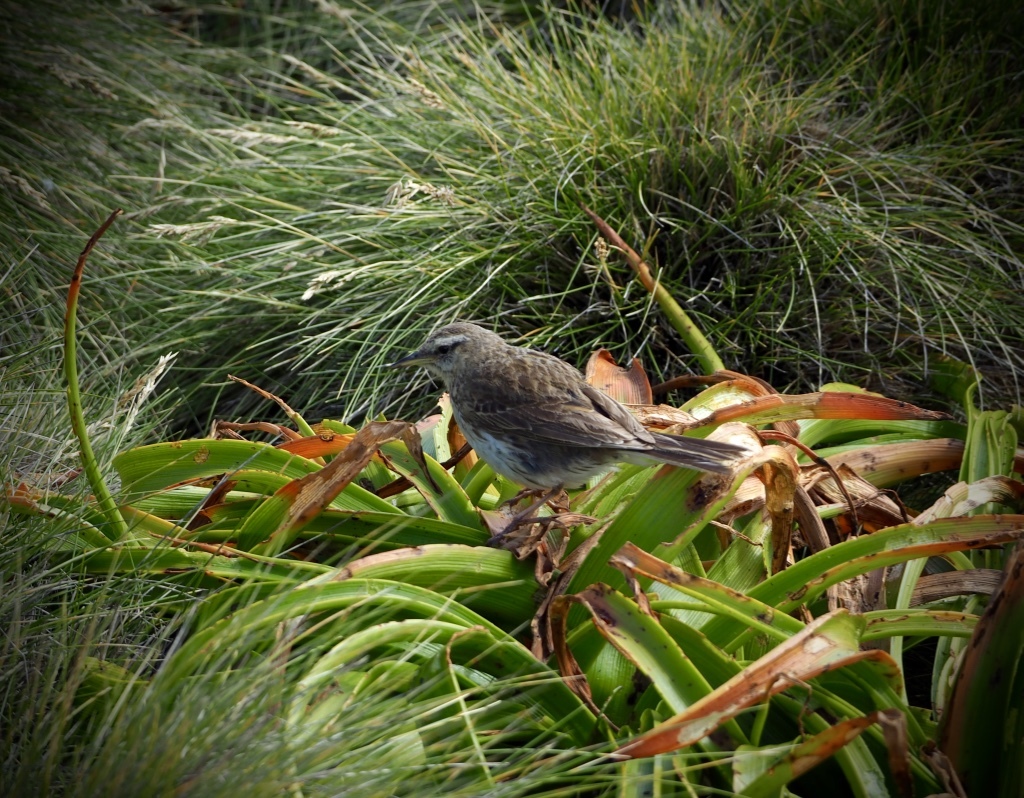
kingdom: Animalia
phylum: Chordata
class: Aves
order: Passeriformes
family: Motacillidae
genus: Anthus
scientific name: Anthus novaeseelandiae
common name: New zealand pipit
